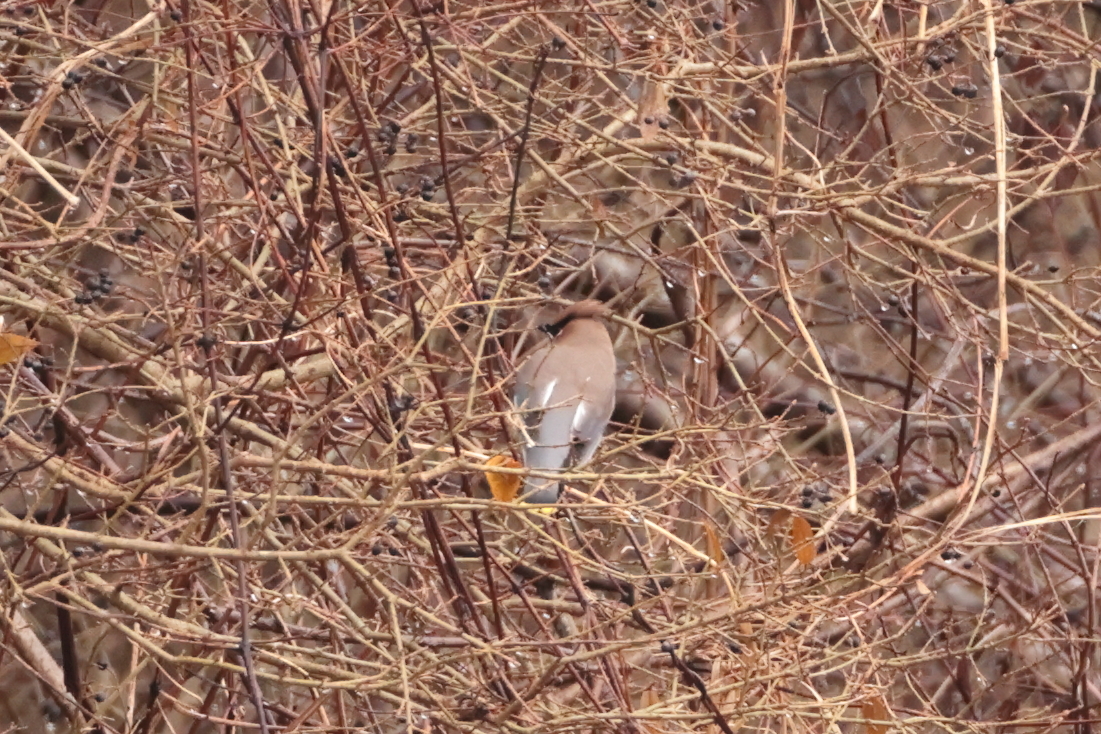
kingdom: Animalia
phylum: Chordata
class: Aves
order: Passeriformes
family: Bombycillidae
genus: Bombycilla
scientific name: Bombycilla cedrorum
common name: Cedar waxwing
